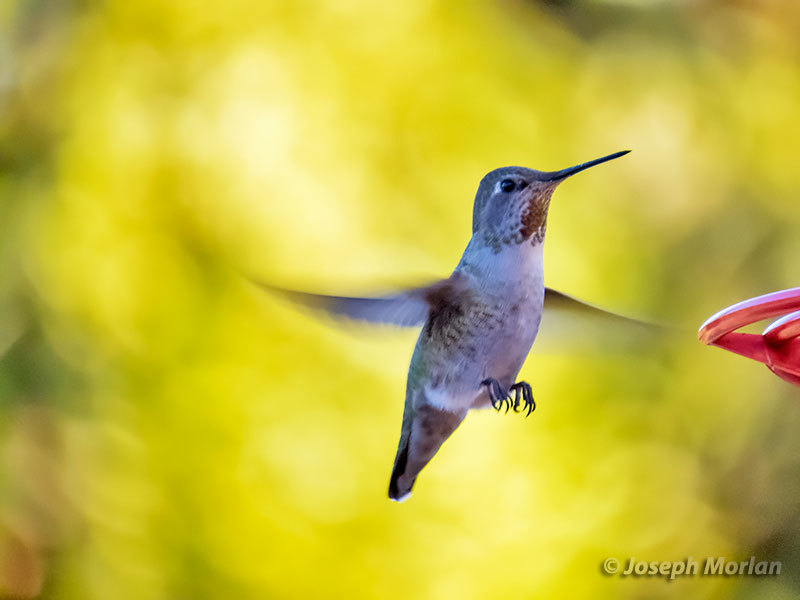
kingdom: Animalia
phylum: Chordata
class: Aves
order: Apodiformes
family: Trochilidae
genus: Calypte
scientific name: Calypte anna
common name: Anna's hummingbird
